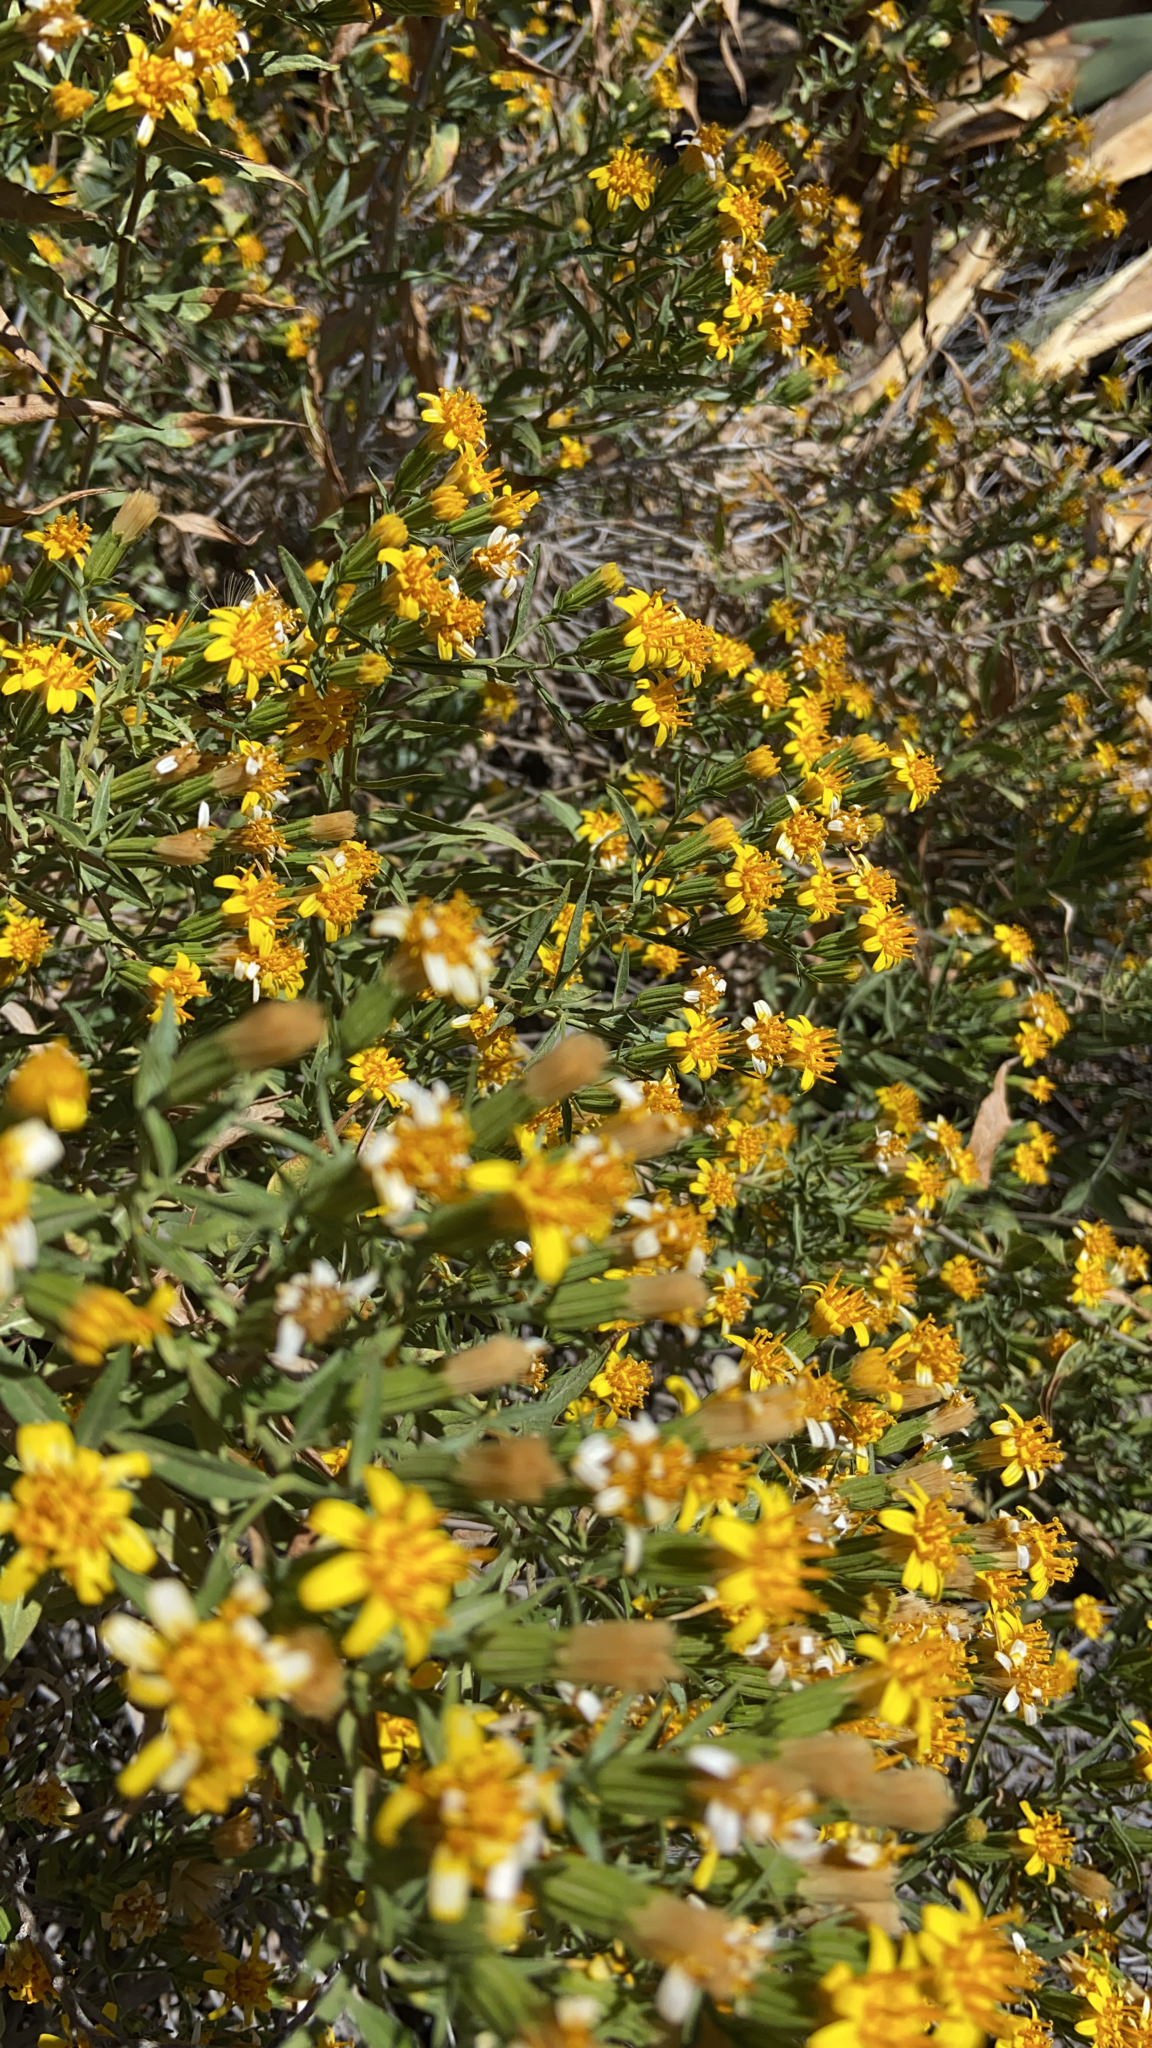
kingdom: Plantae
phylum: Tracheophyta
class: Magnoliopsida
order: Asterales
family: Asteraceae
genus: Trixis
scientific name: Trixis californica
